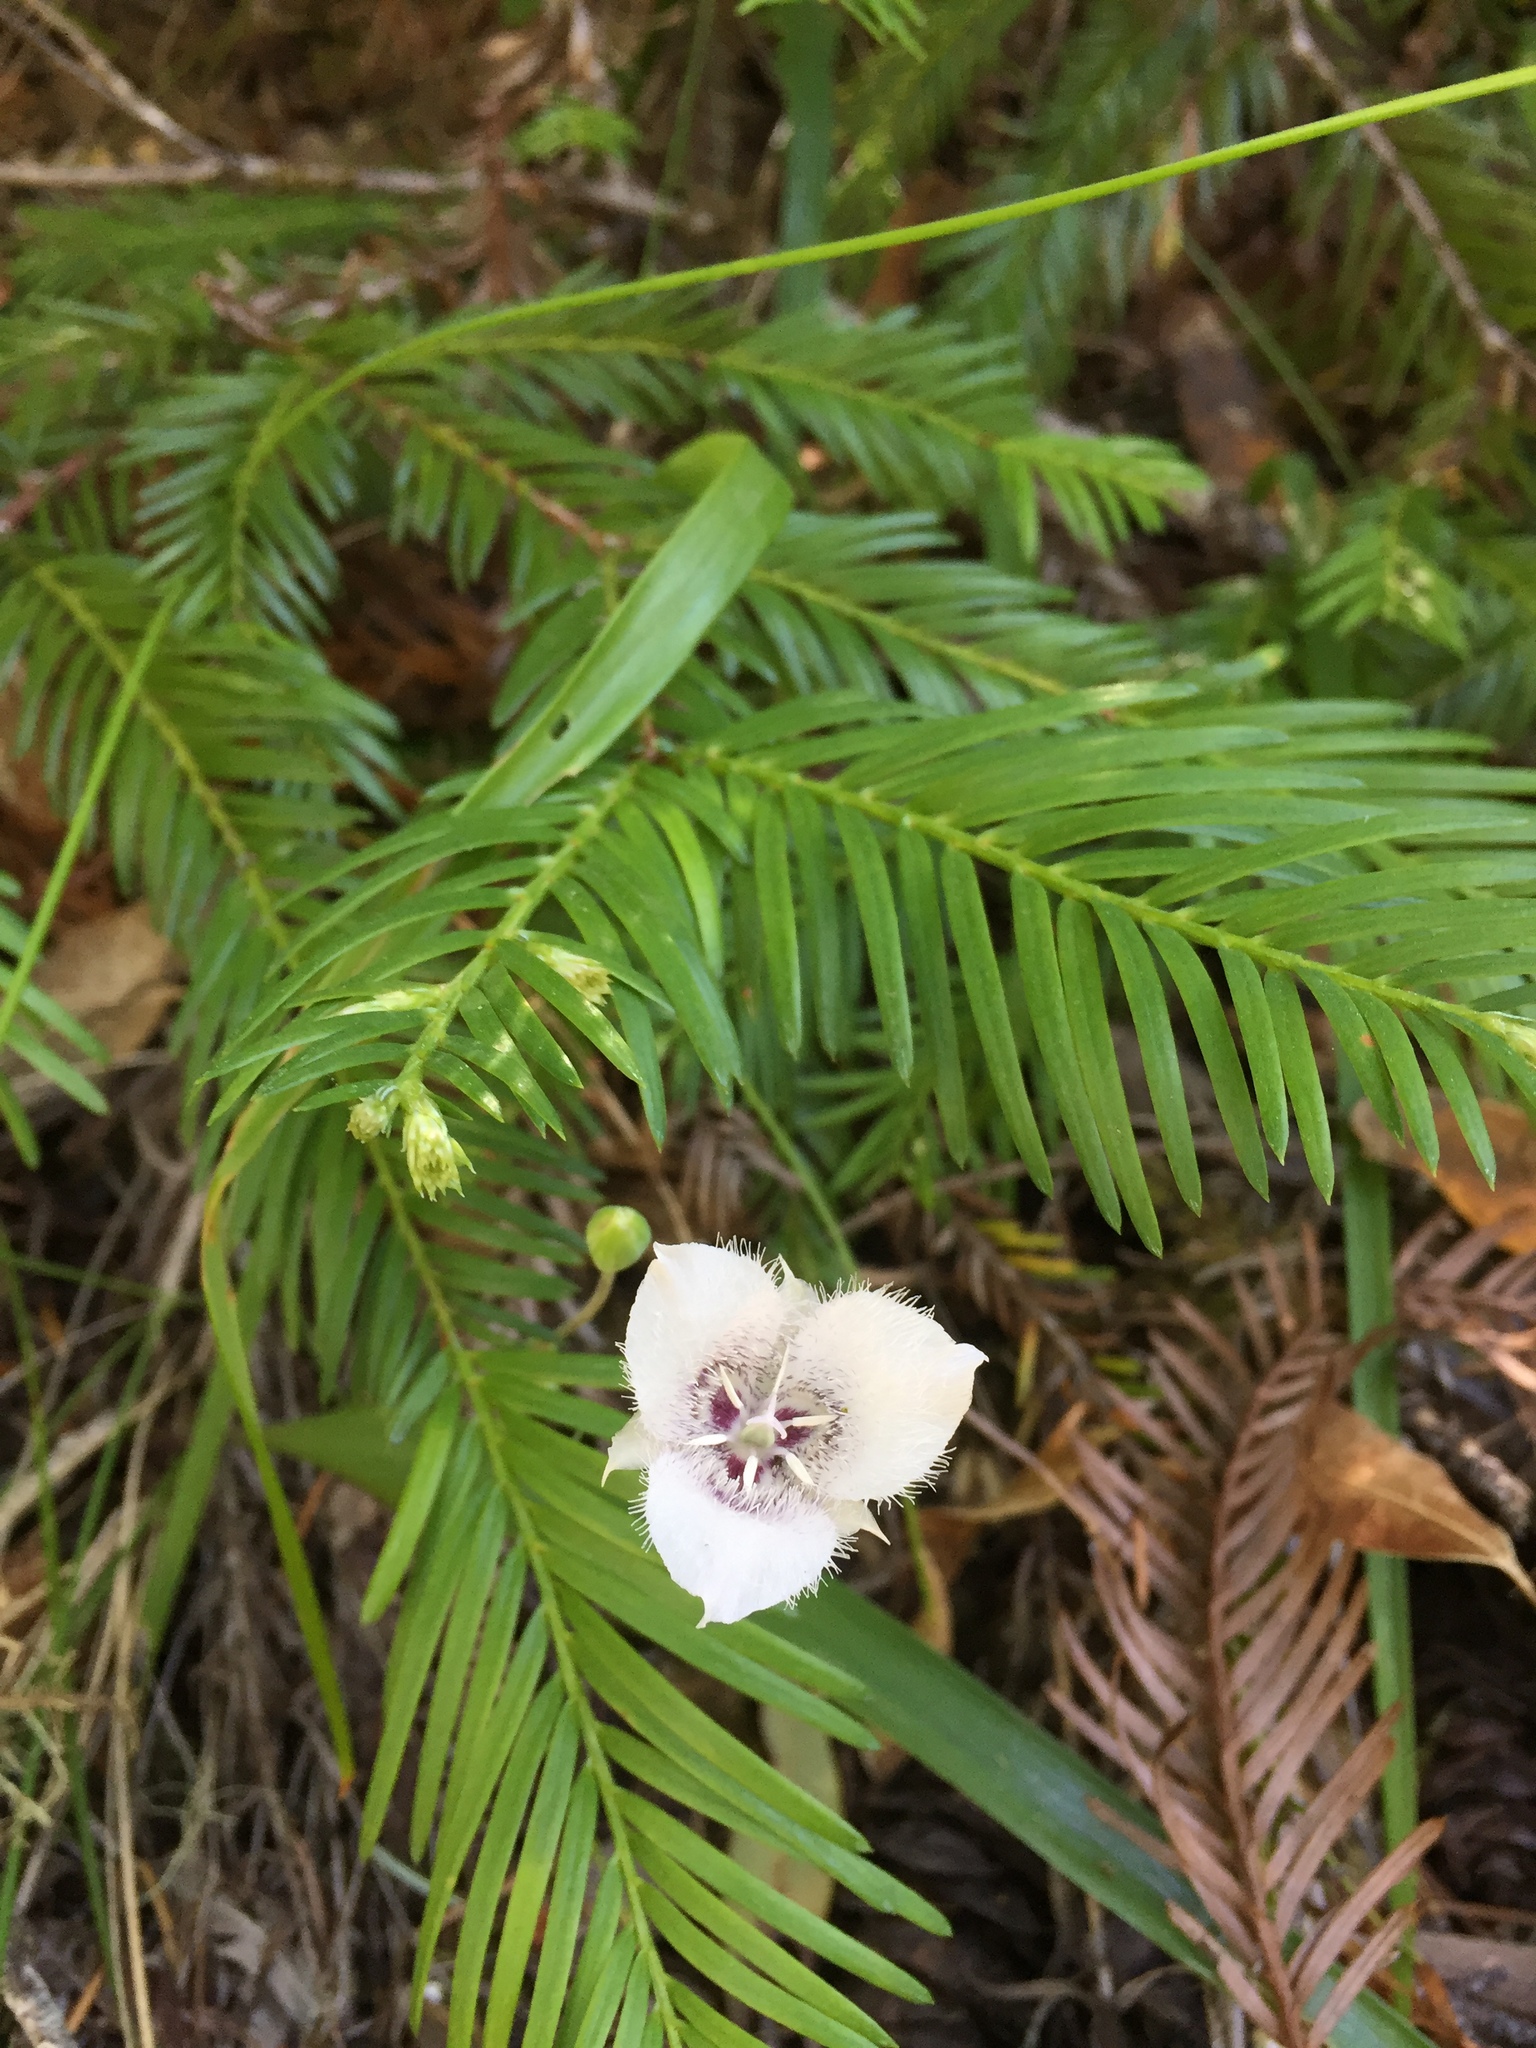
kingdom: Plantae
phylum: Tracheophyta
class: Liliopsida
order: Liliales
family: Liliaceae
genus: Calochortus
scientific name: Calochortus tolmiei
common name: Pussy-ears
